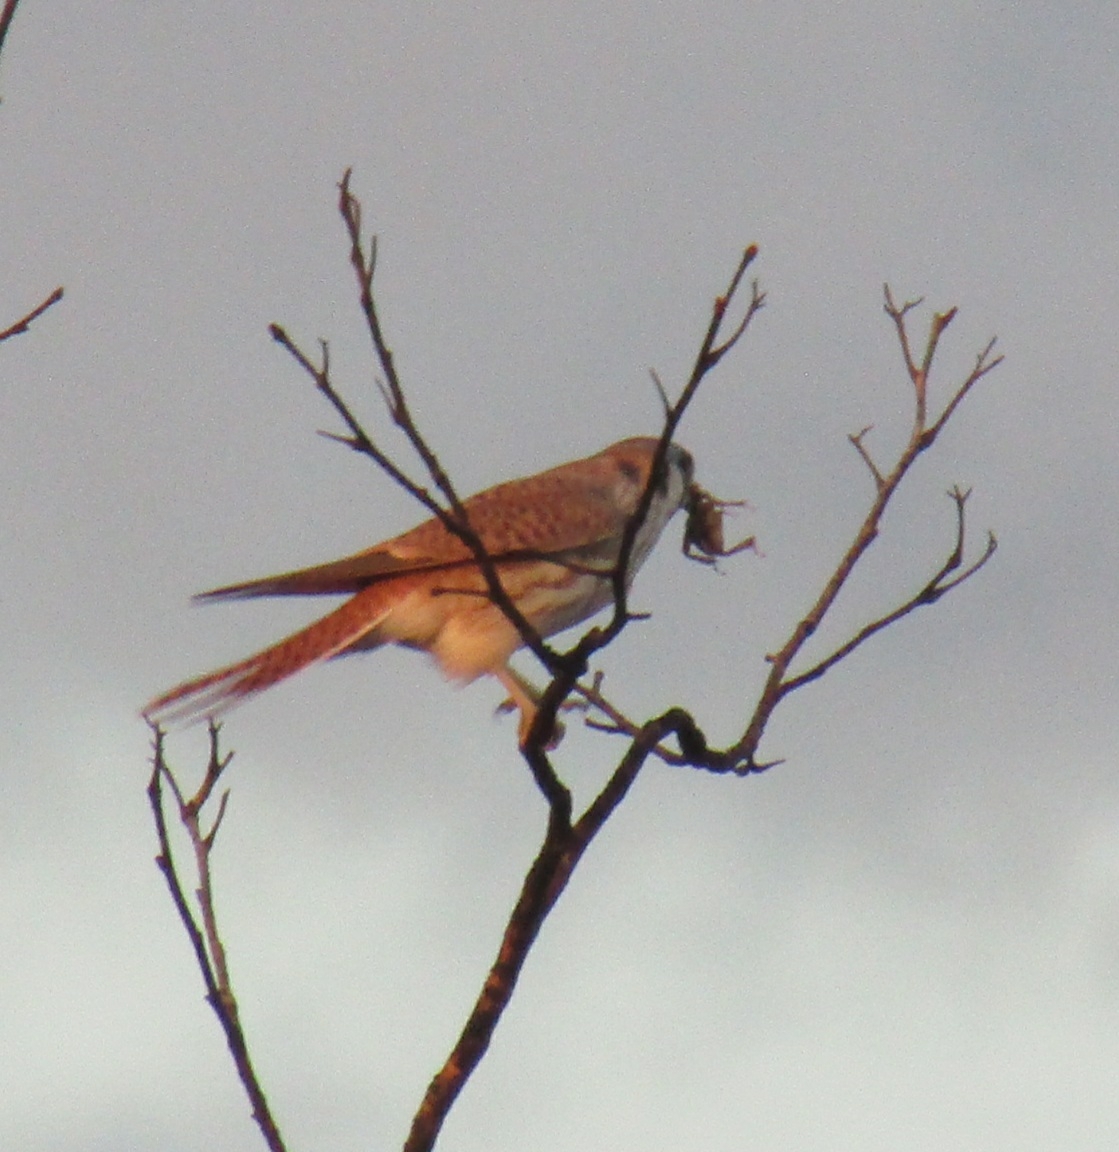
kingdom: Animalia
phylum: Chordata
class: Aves
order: Falconiformes
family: Falconidae
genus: Falco
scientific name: Falco sparverius
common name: American kestrel
